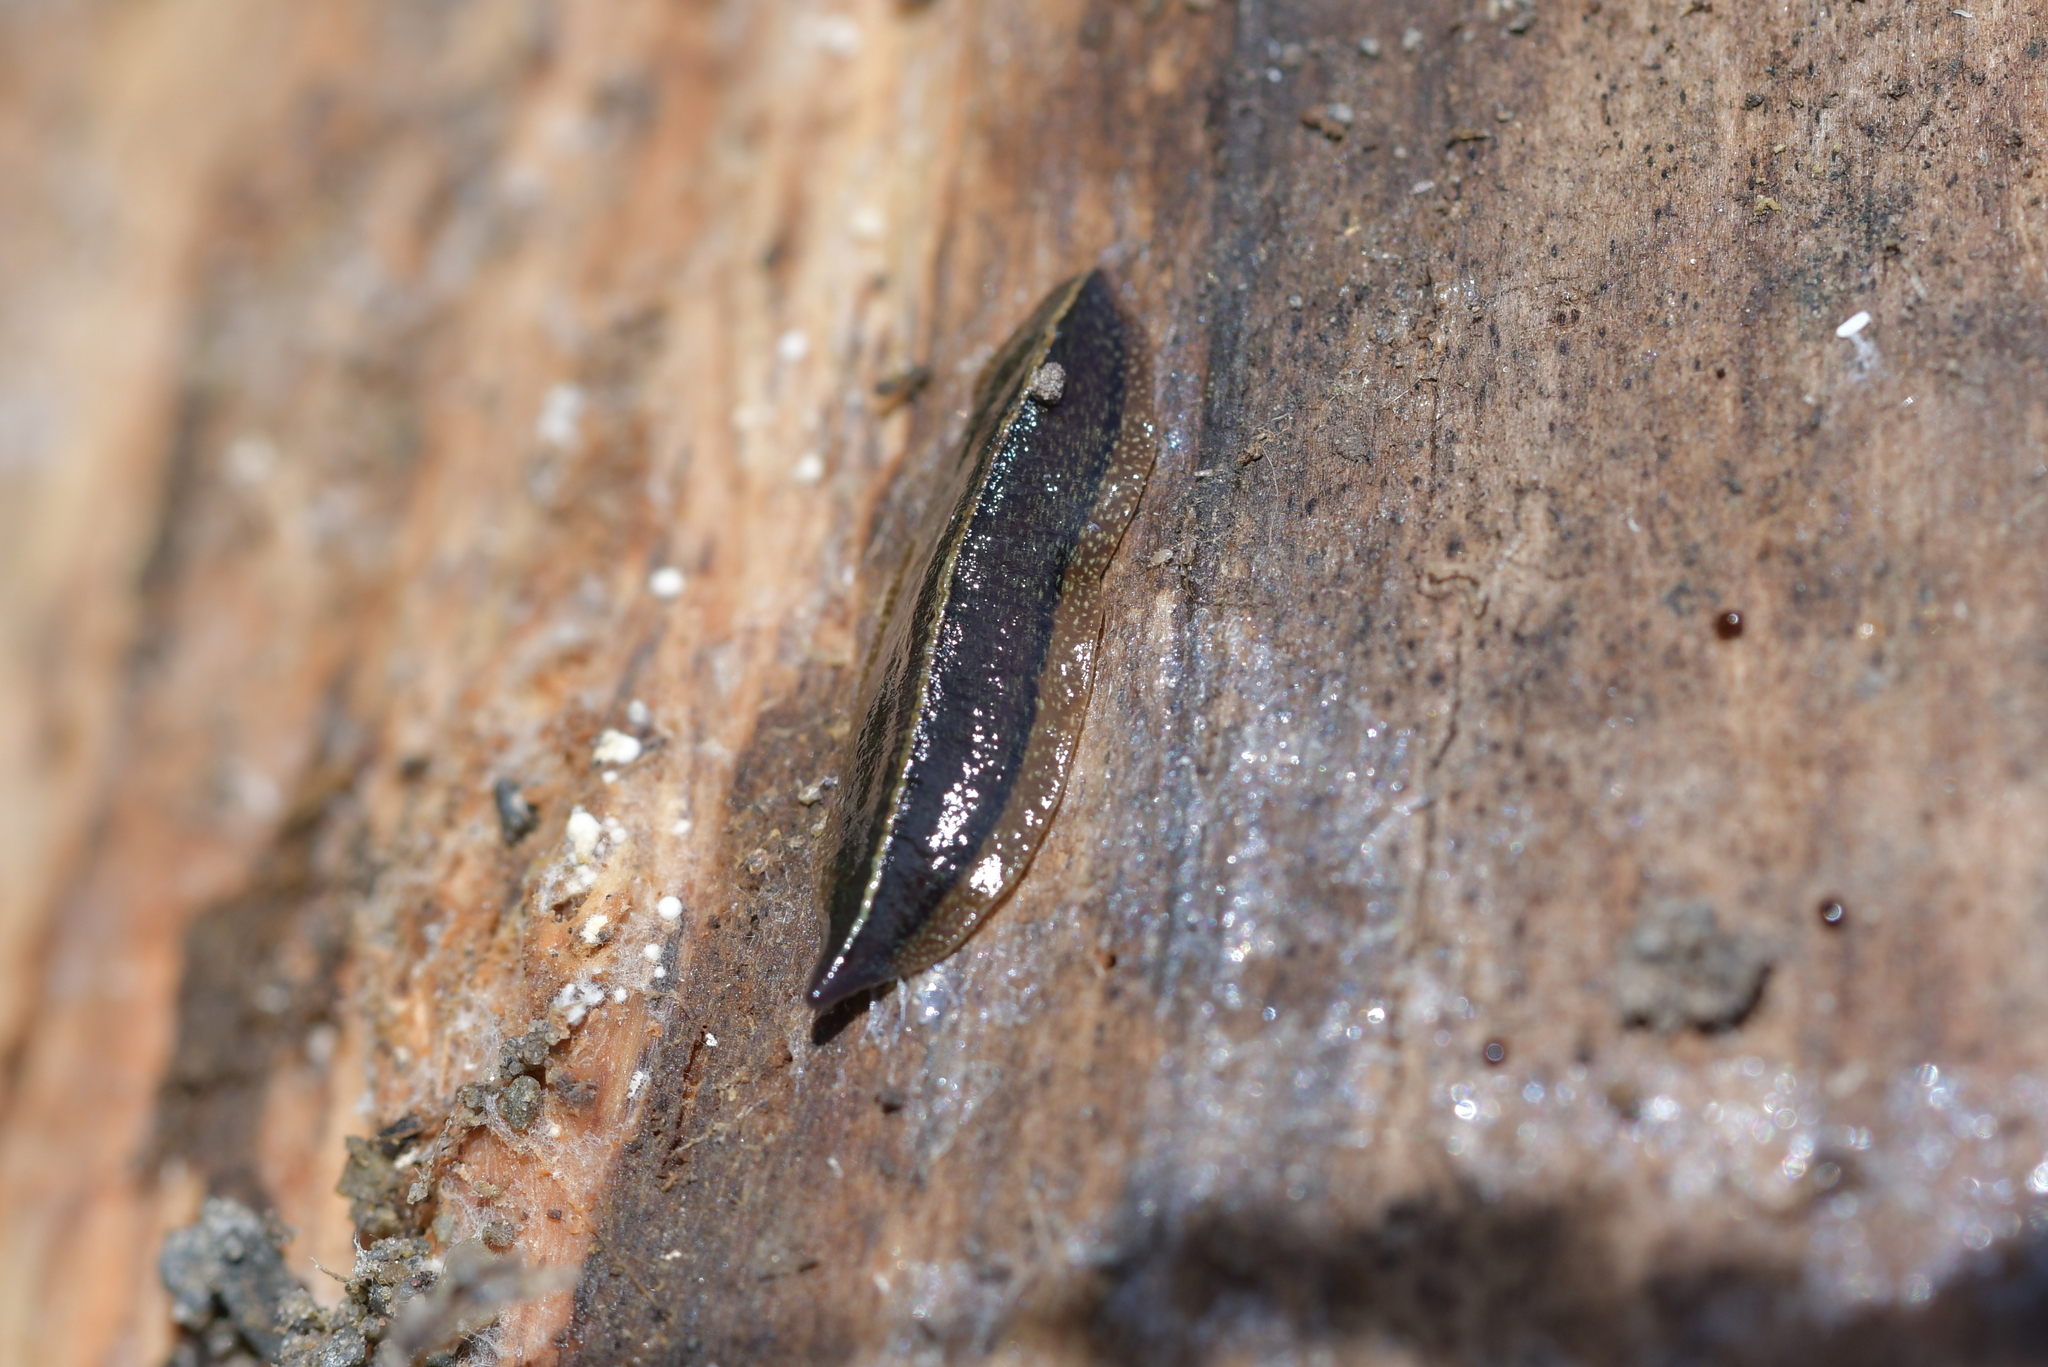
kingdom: Animalia
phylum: Platyhelminthes
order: Tricladida
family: Geoplanidae
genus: Newzealandia
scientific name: Newzealandia graffii
